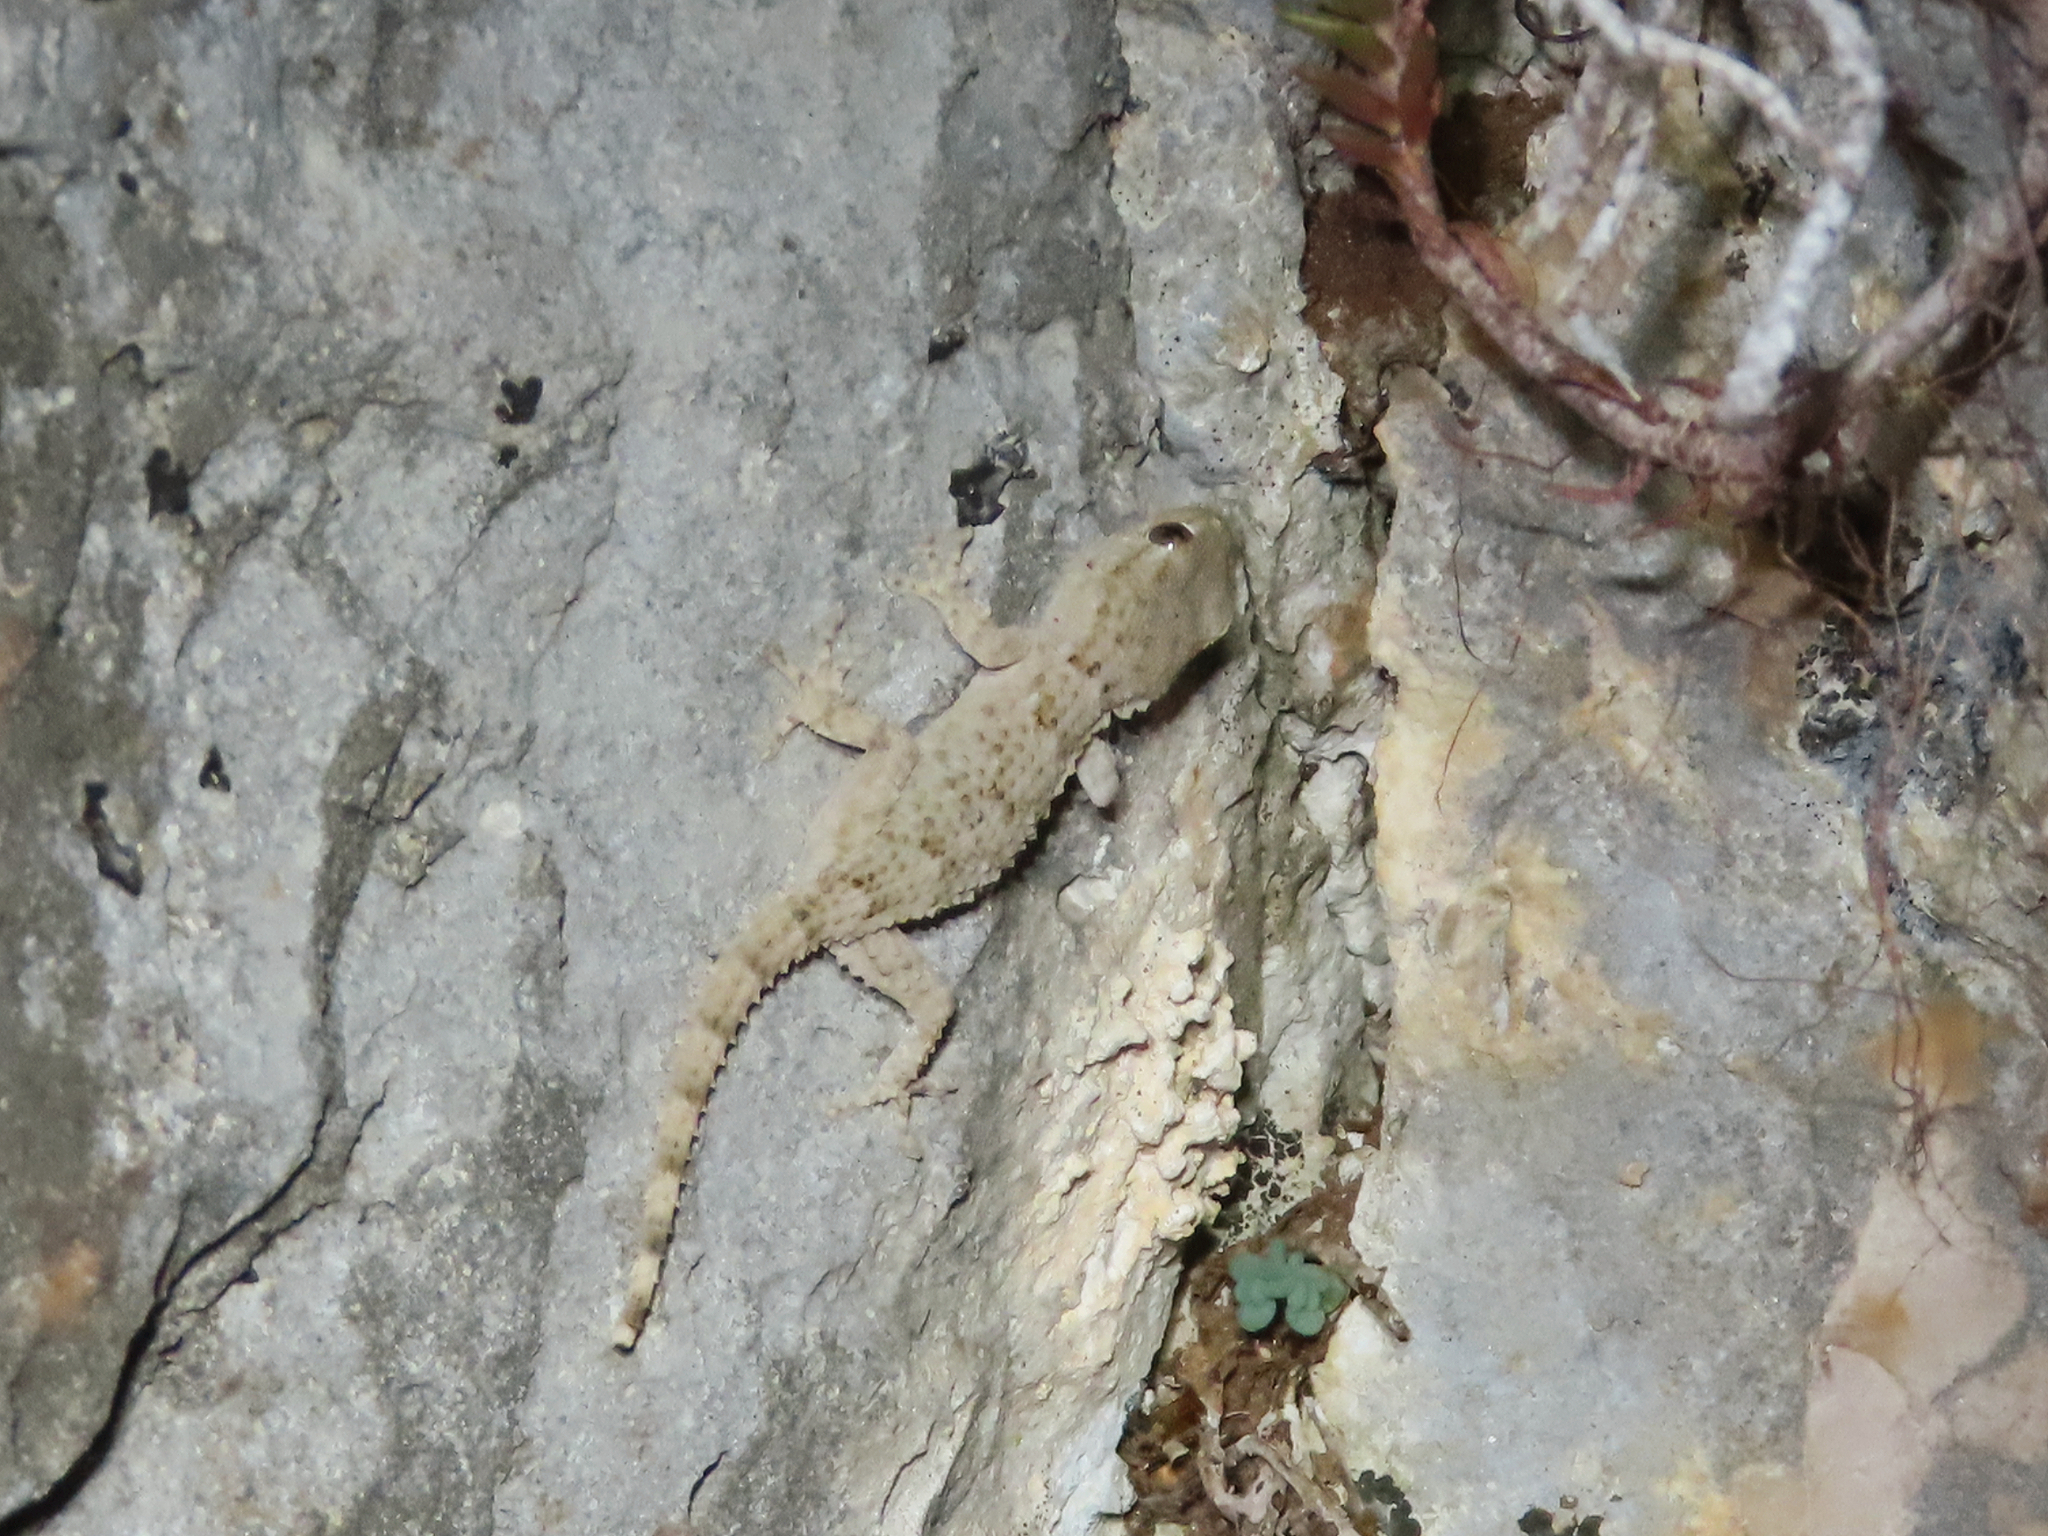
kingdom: Animalia
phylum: Chordata
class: Squamata
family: Phyllodactylidae
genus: Tarentola
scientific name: Tarentola mauritanica
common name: Moorish gecko
